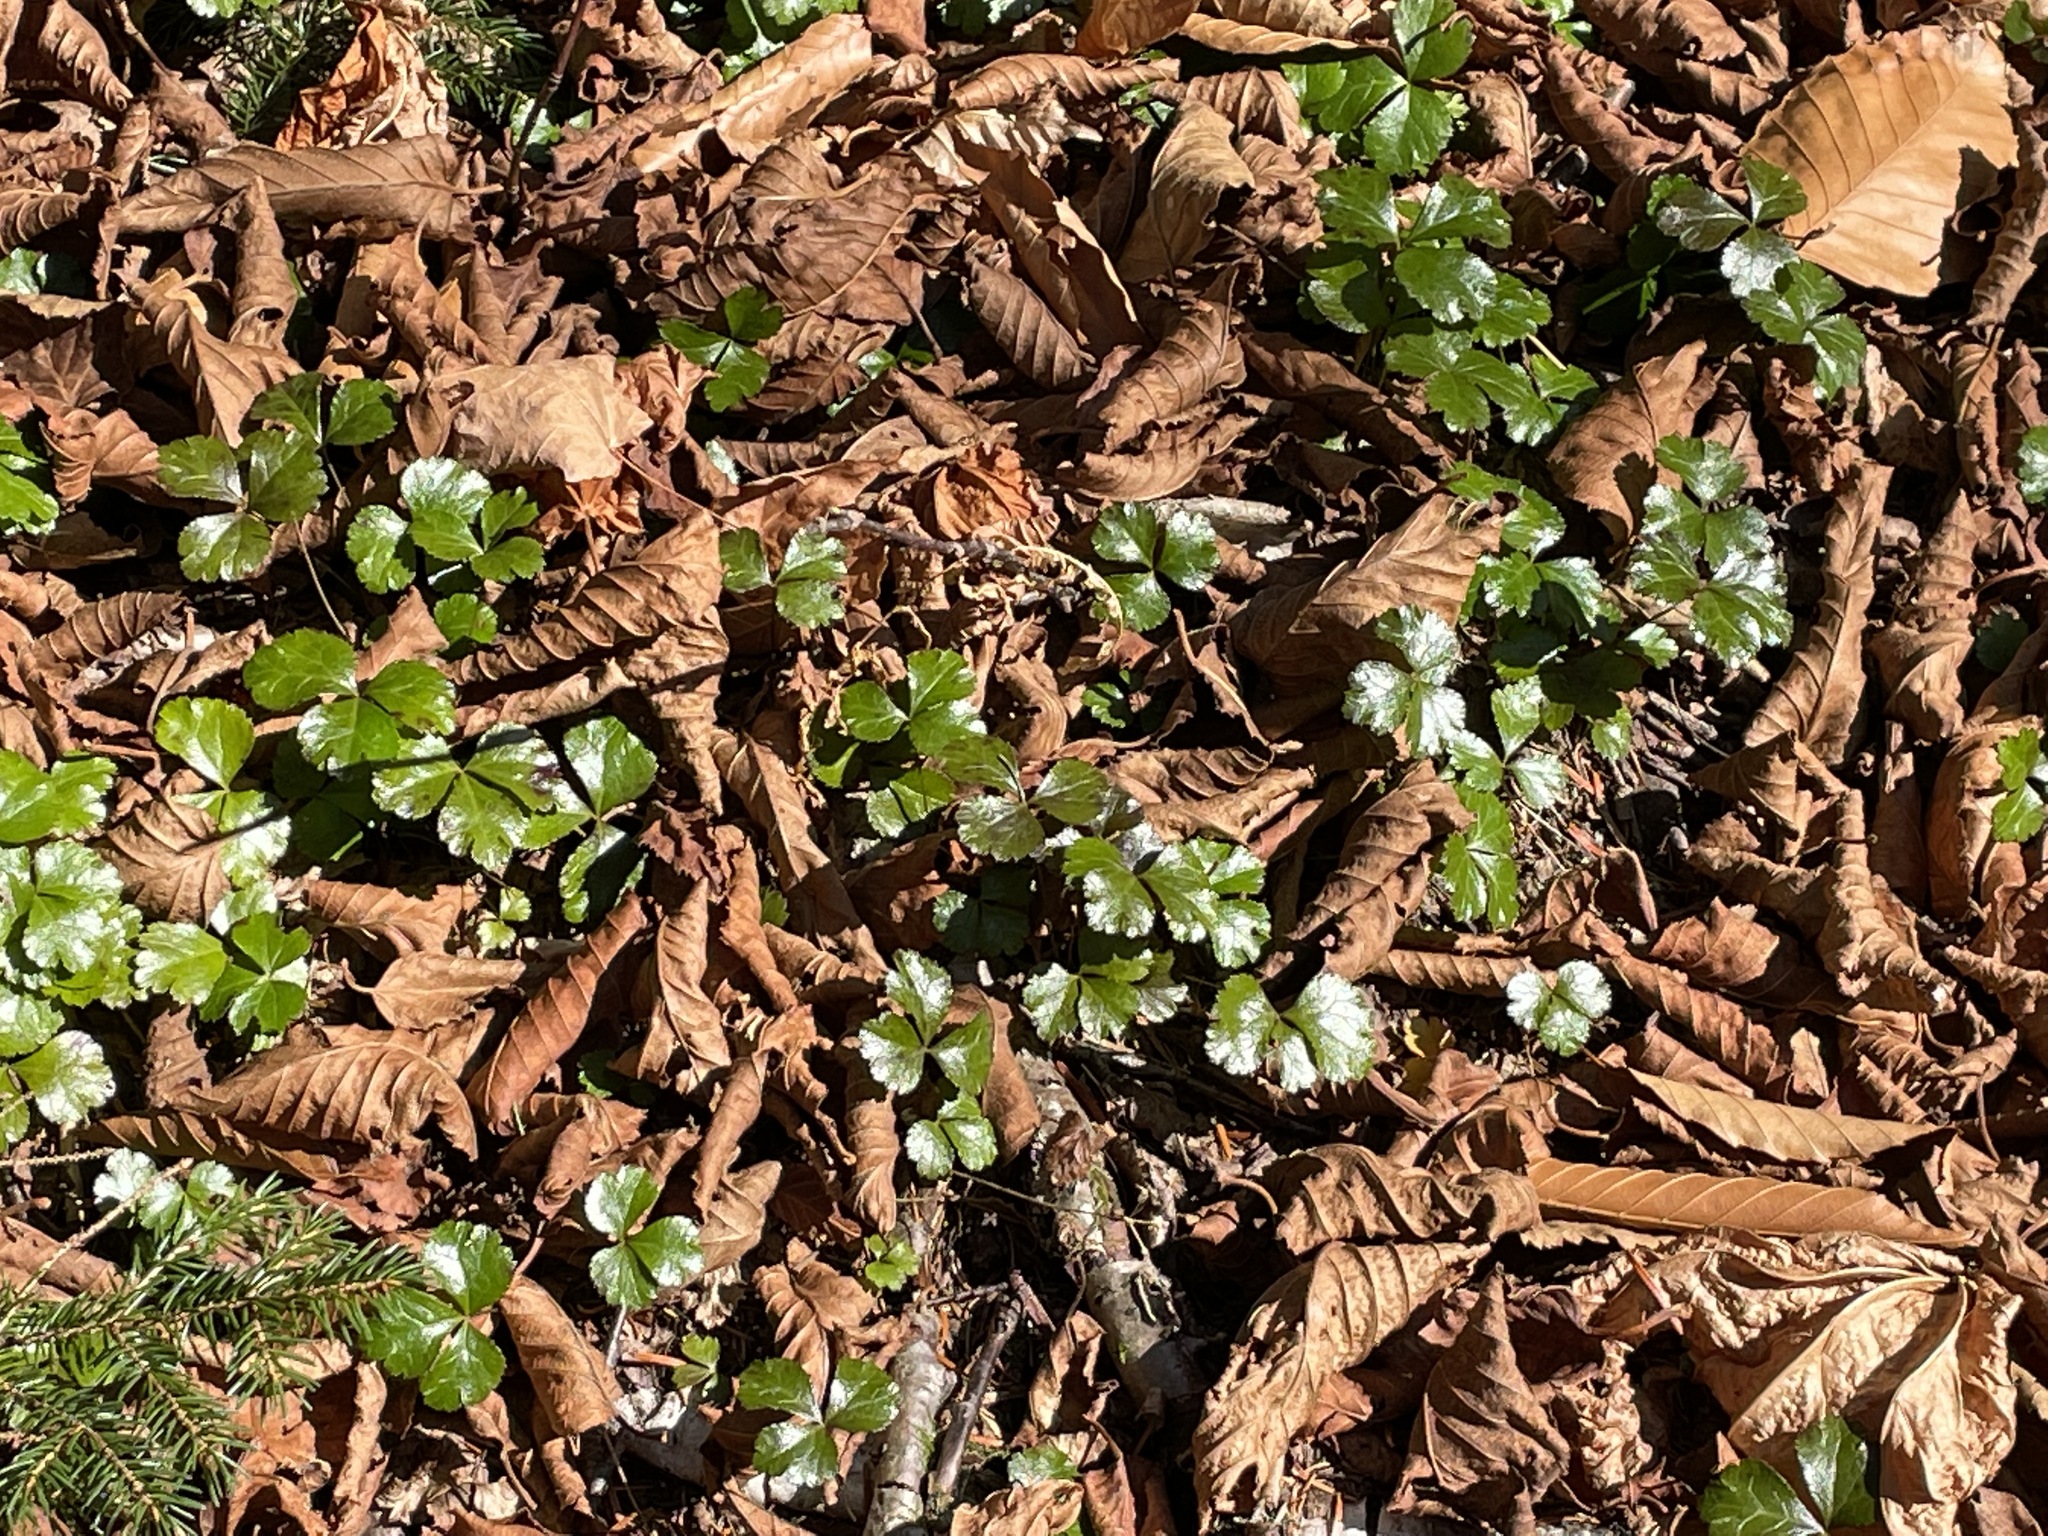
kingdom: Plantae
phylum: Tracheophyta
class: Magnoliopsida
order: Ranunculales
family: Ranunculaceae
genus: Coptis
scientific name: Coptis trifolia
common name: Canker-root
